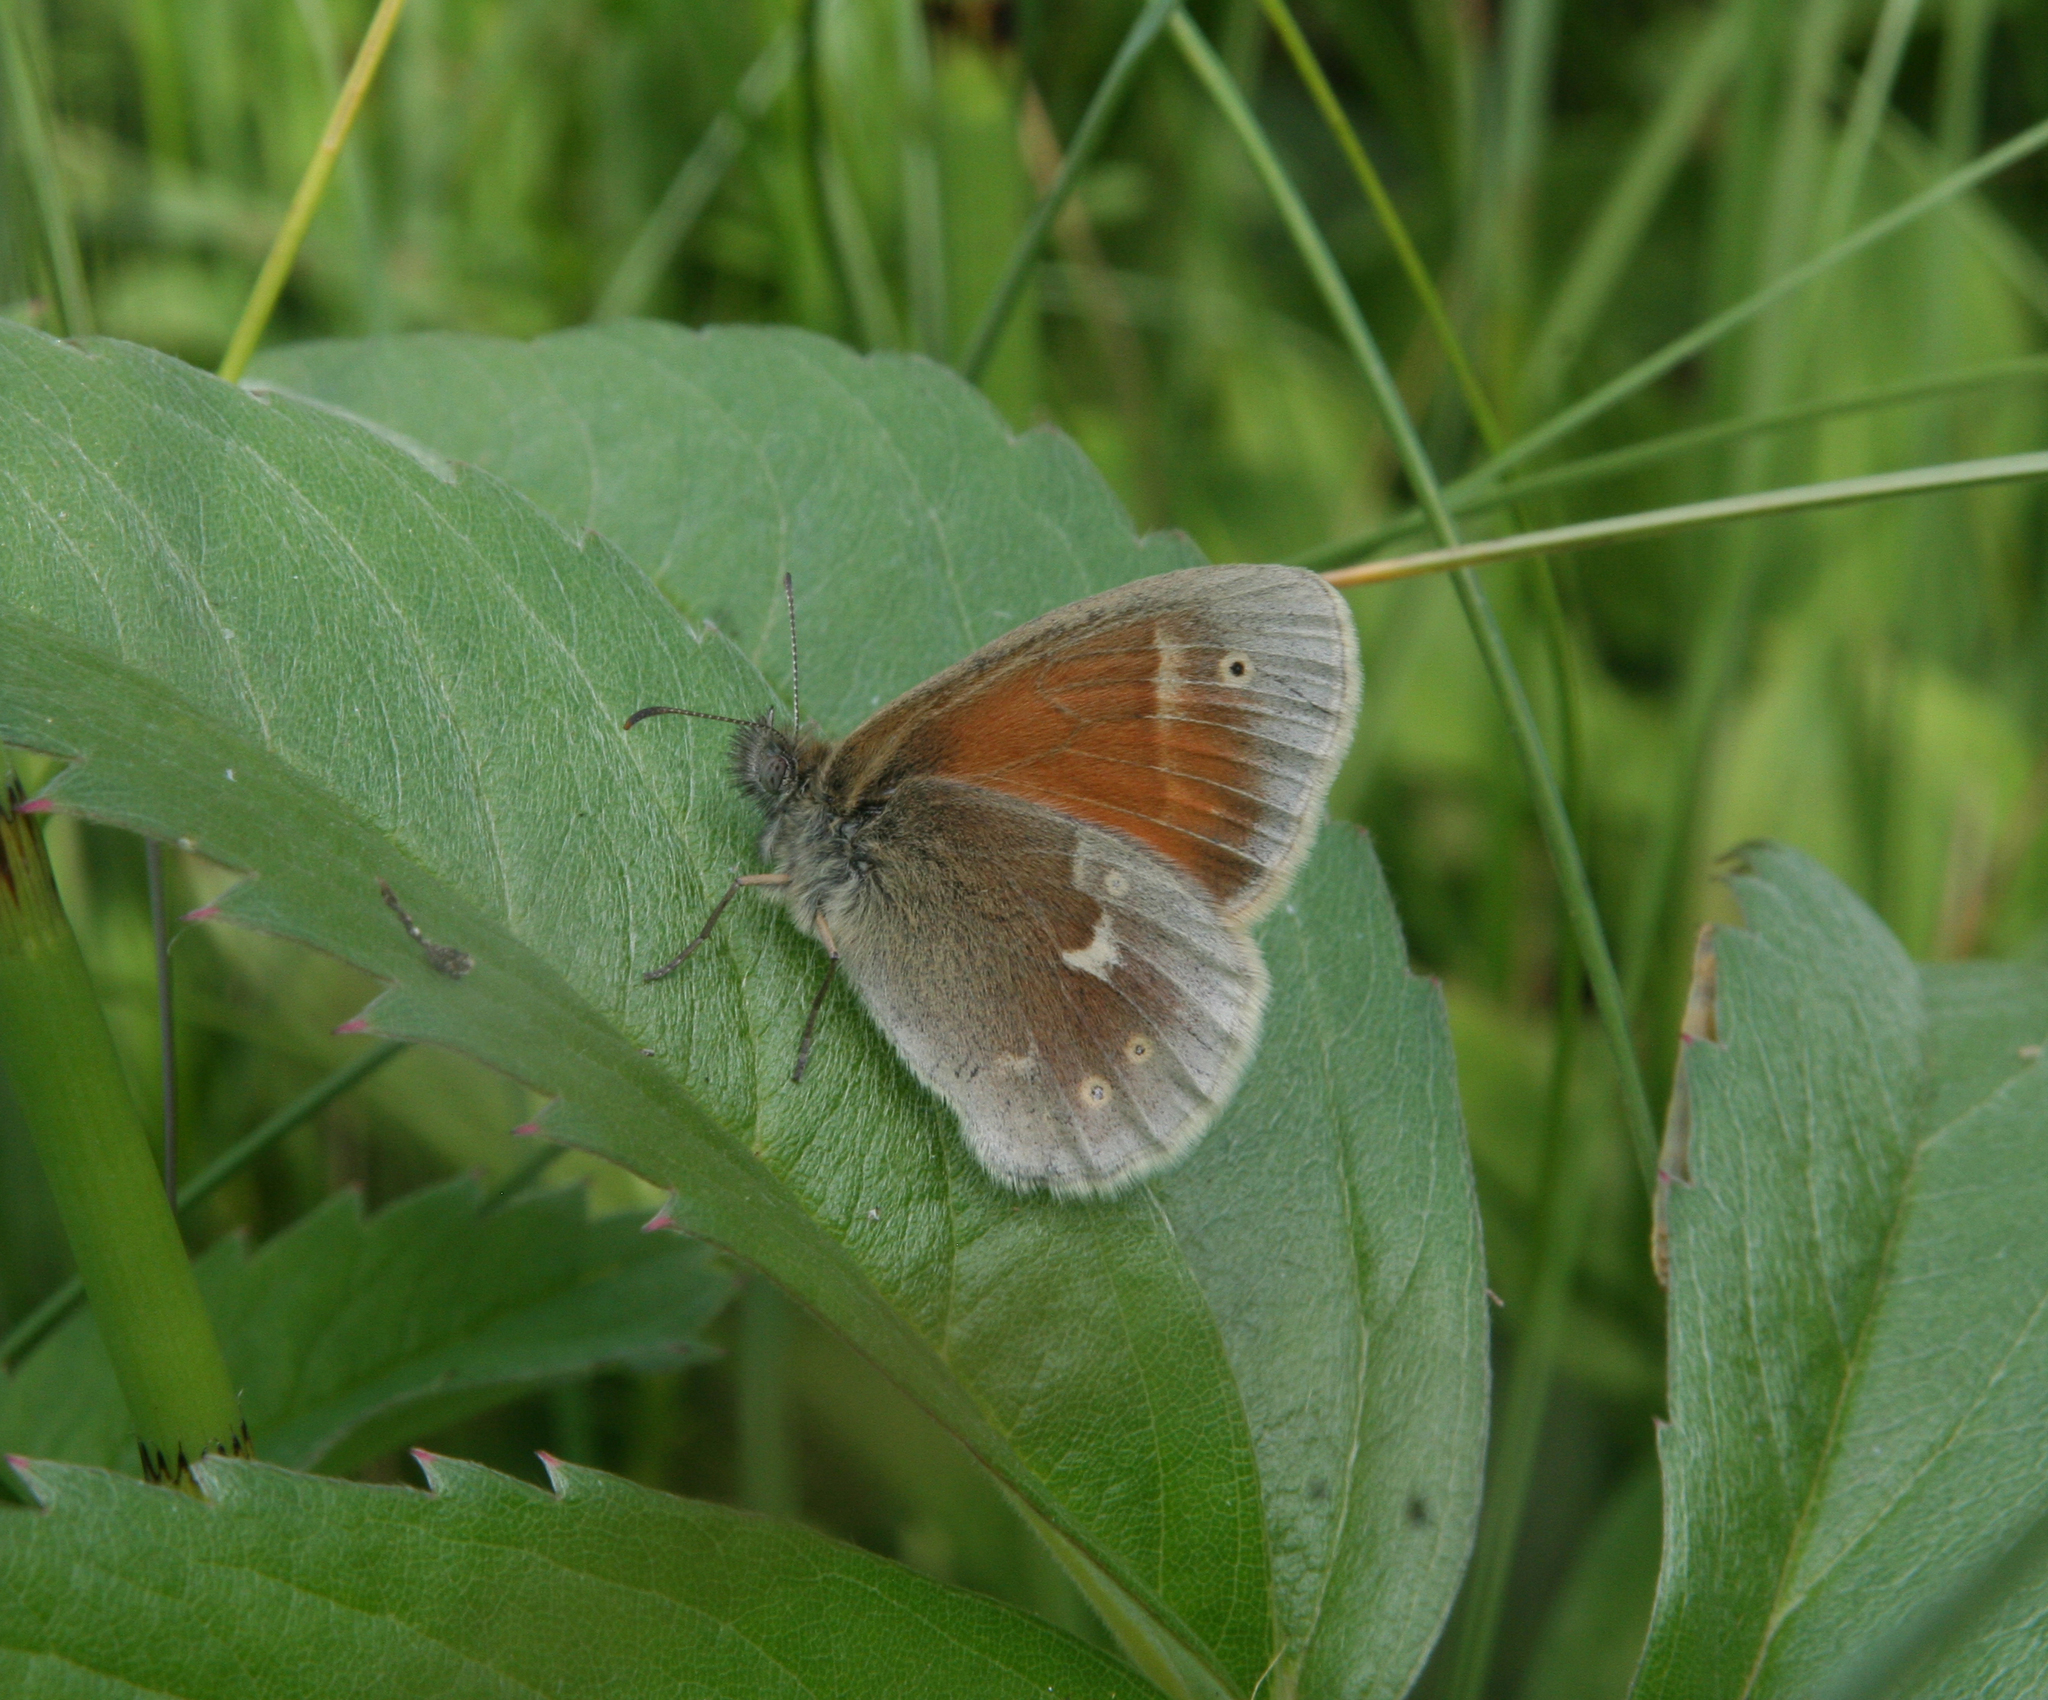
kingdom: Animalia
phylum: Arthropoda
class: Insecta
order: Lepidoptera
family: Nymphalidae
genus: Coenonympha
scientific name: Coenonympha tullia
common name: Large heath
